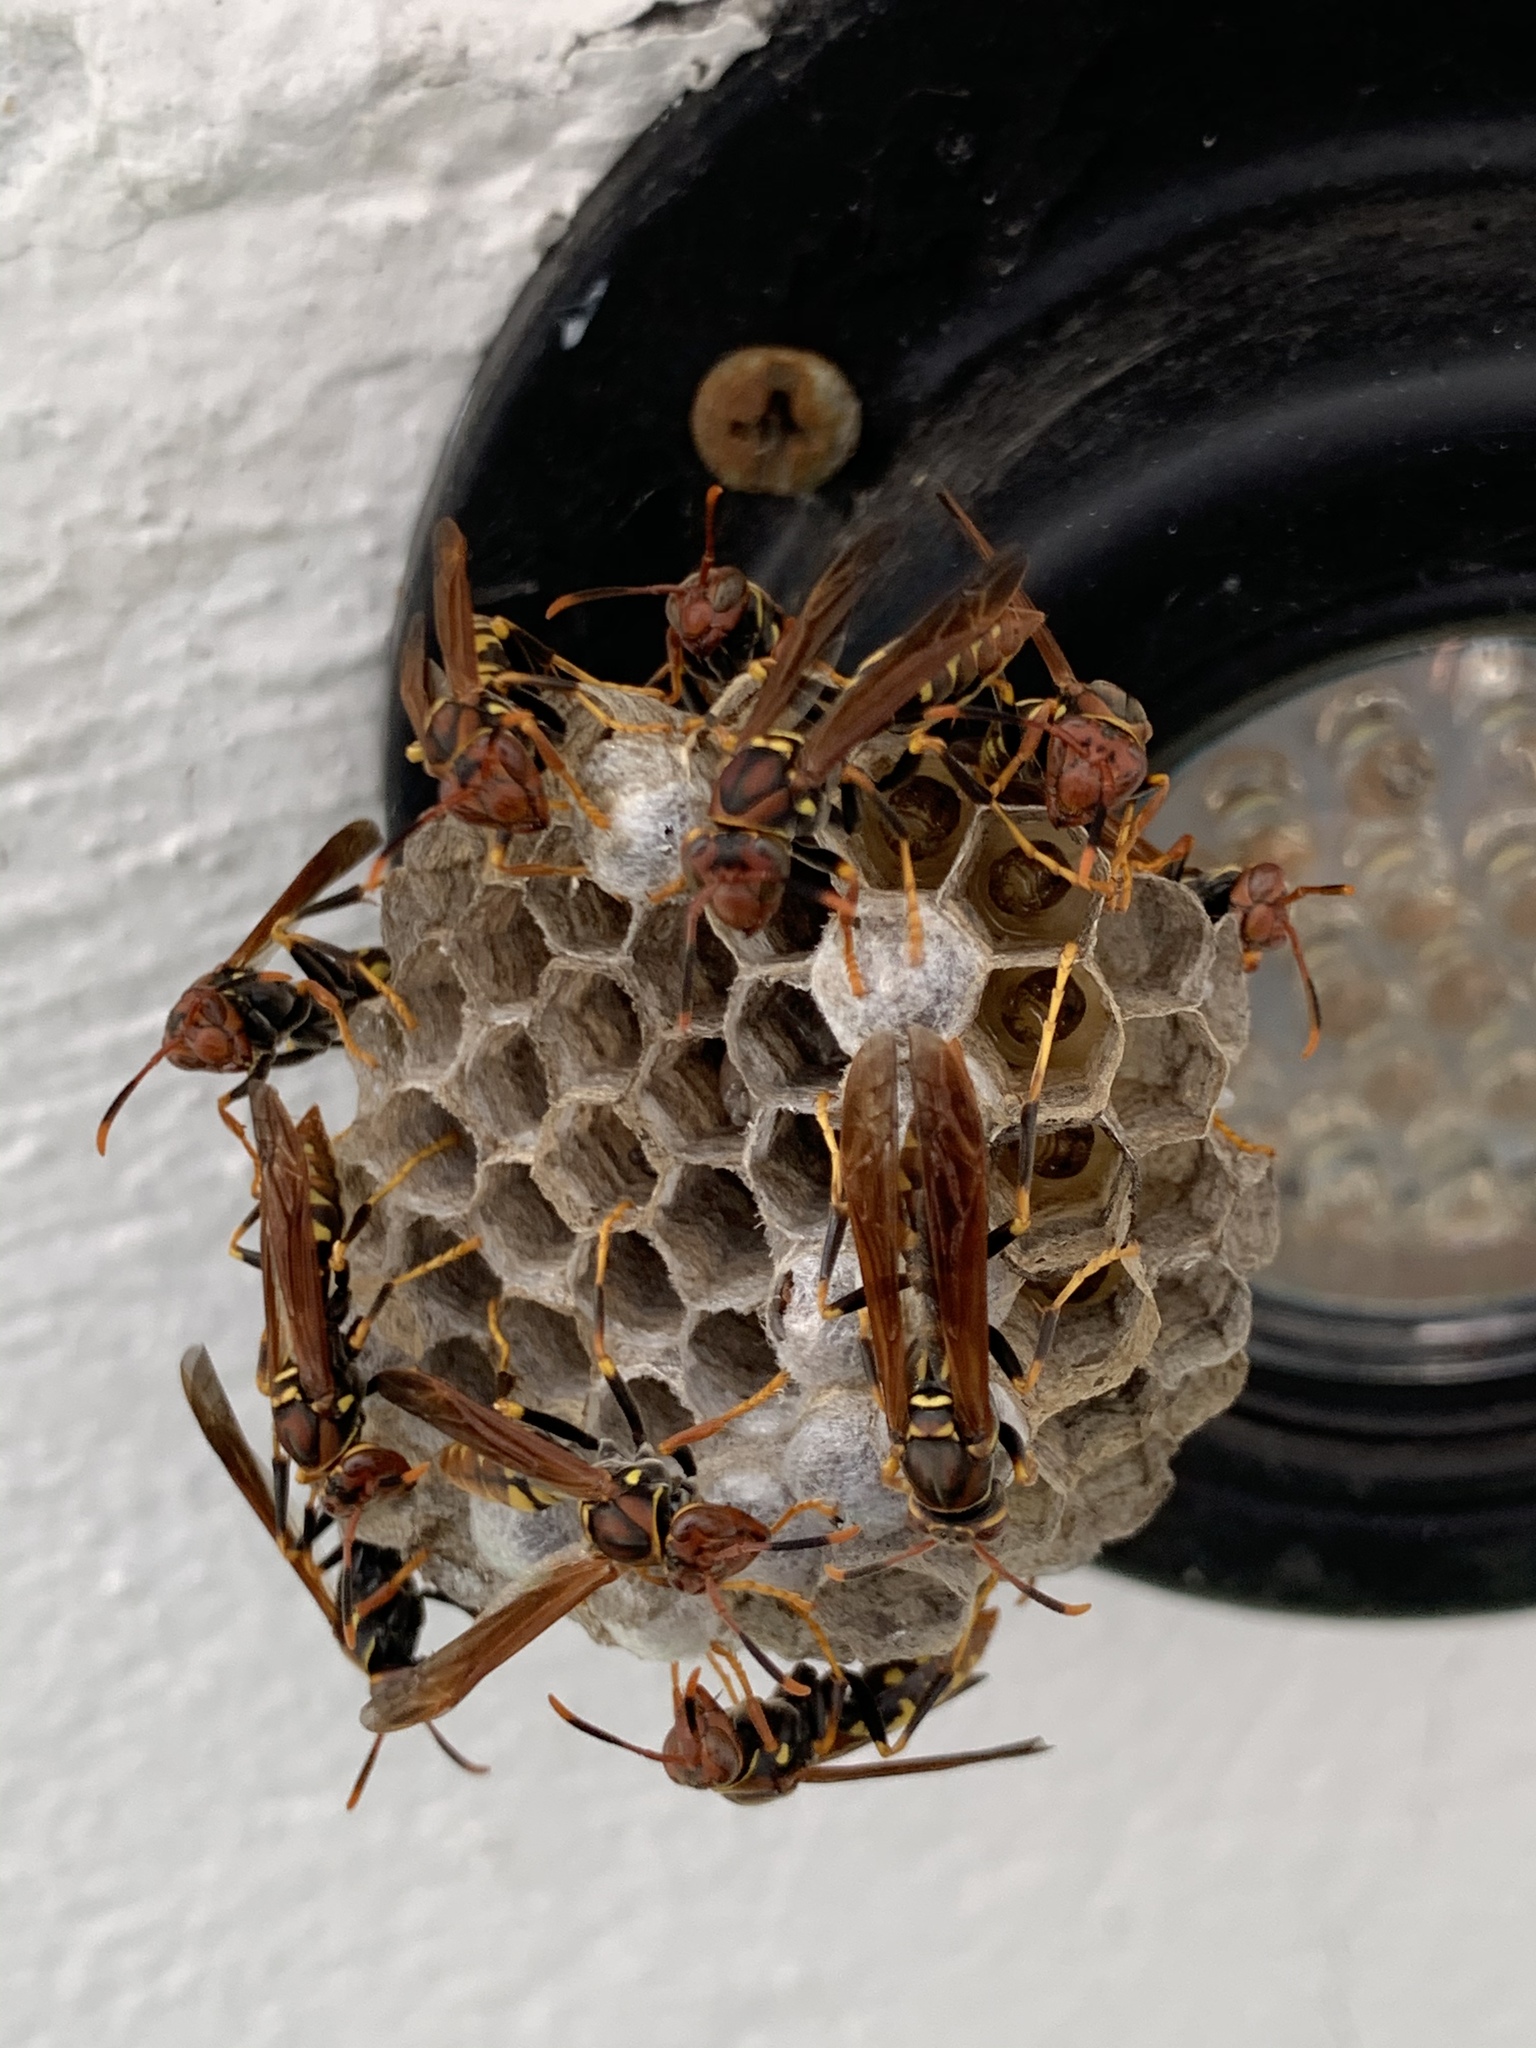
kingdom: Animalia
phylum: Arthropoda
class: Insecta
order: Hymenoptera
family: Eumenidae
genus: Polistes
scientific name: Polistes weyrauchorum
